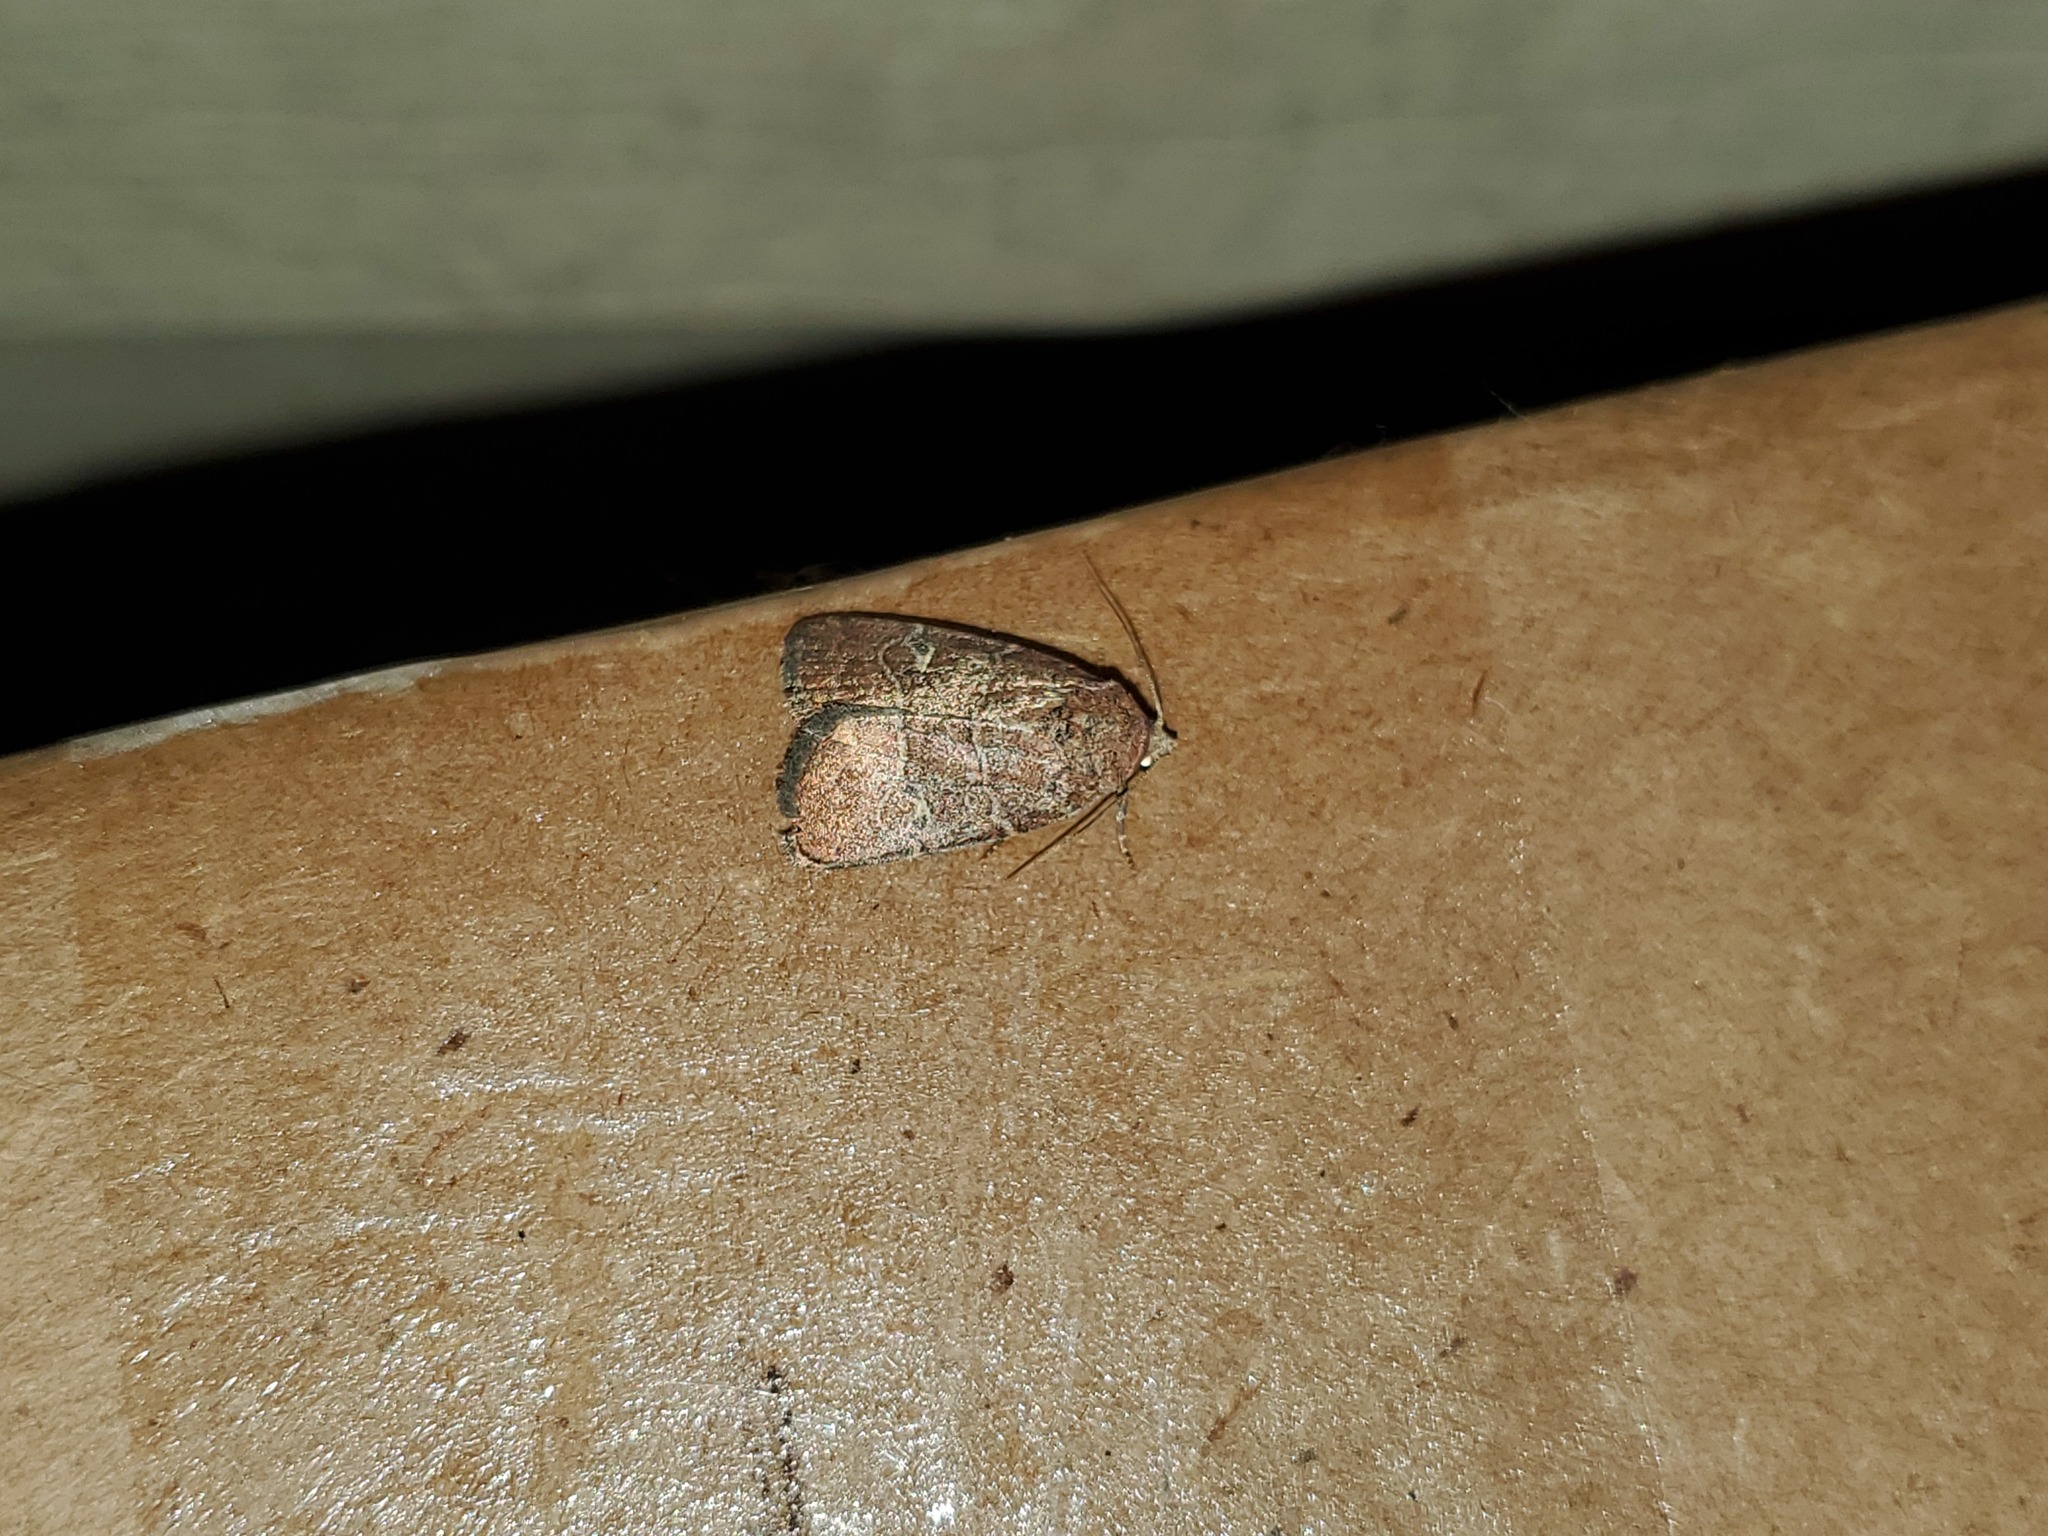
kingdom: Animalia
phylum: Arthropoda
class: Insecta
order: Lepidoptera
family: Noctuidae
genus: Elaphria
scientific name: Elaphria grata
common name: Grateful midget moth
